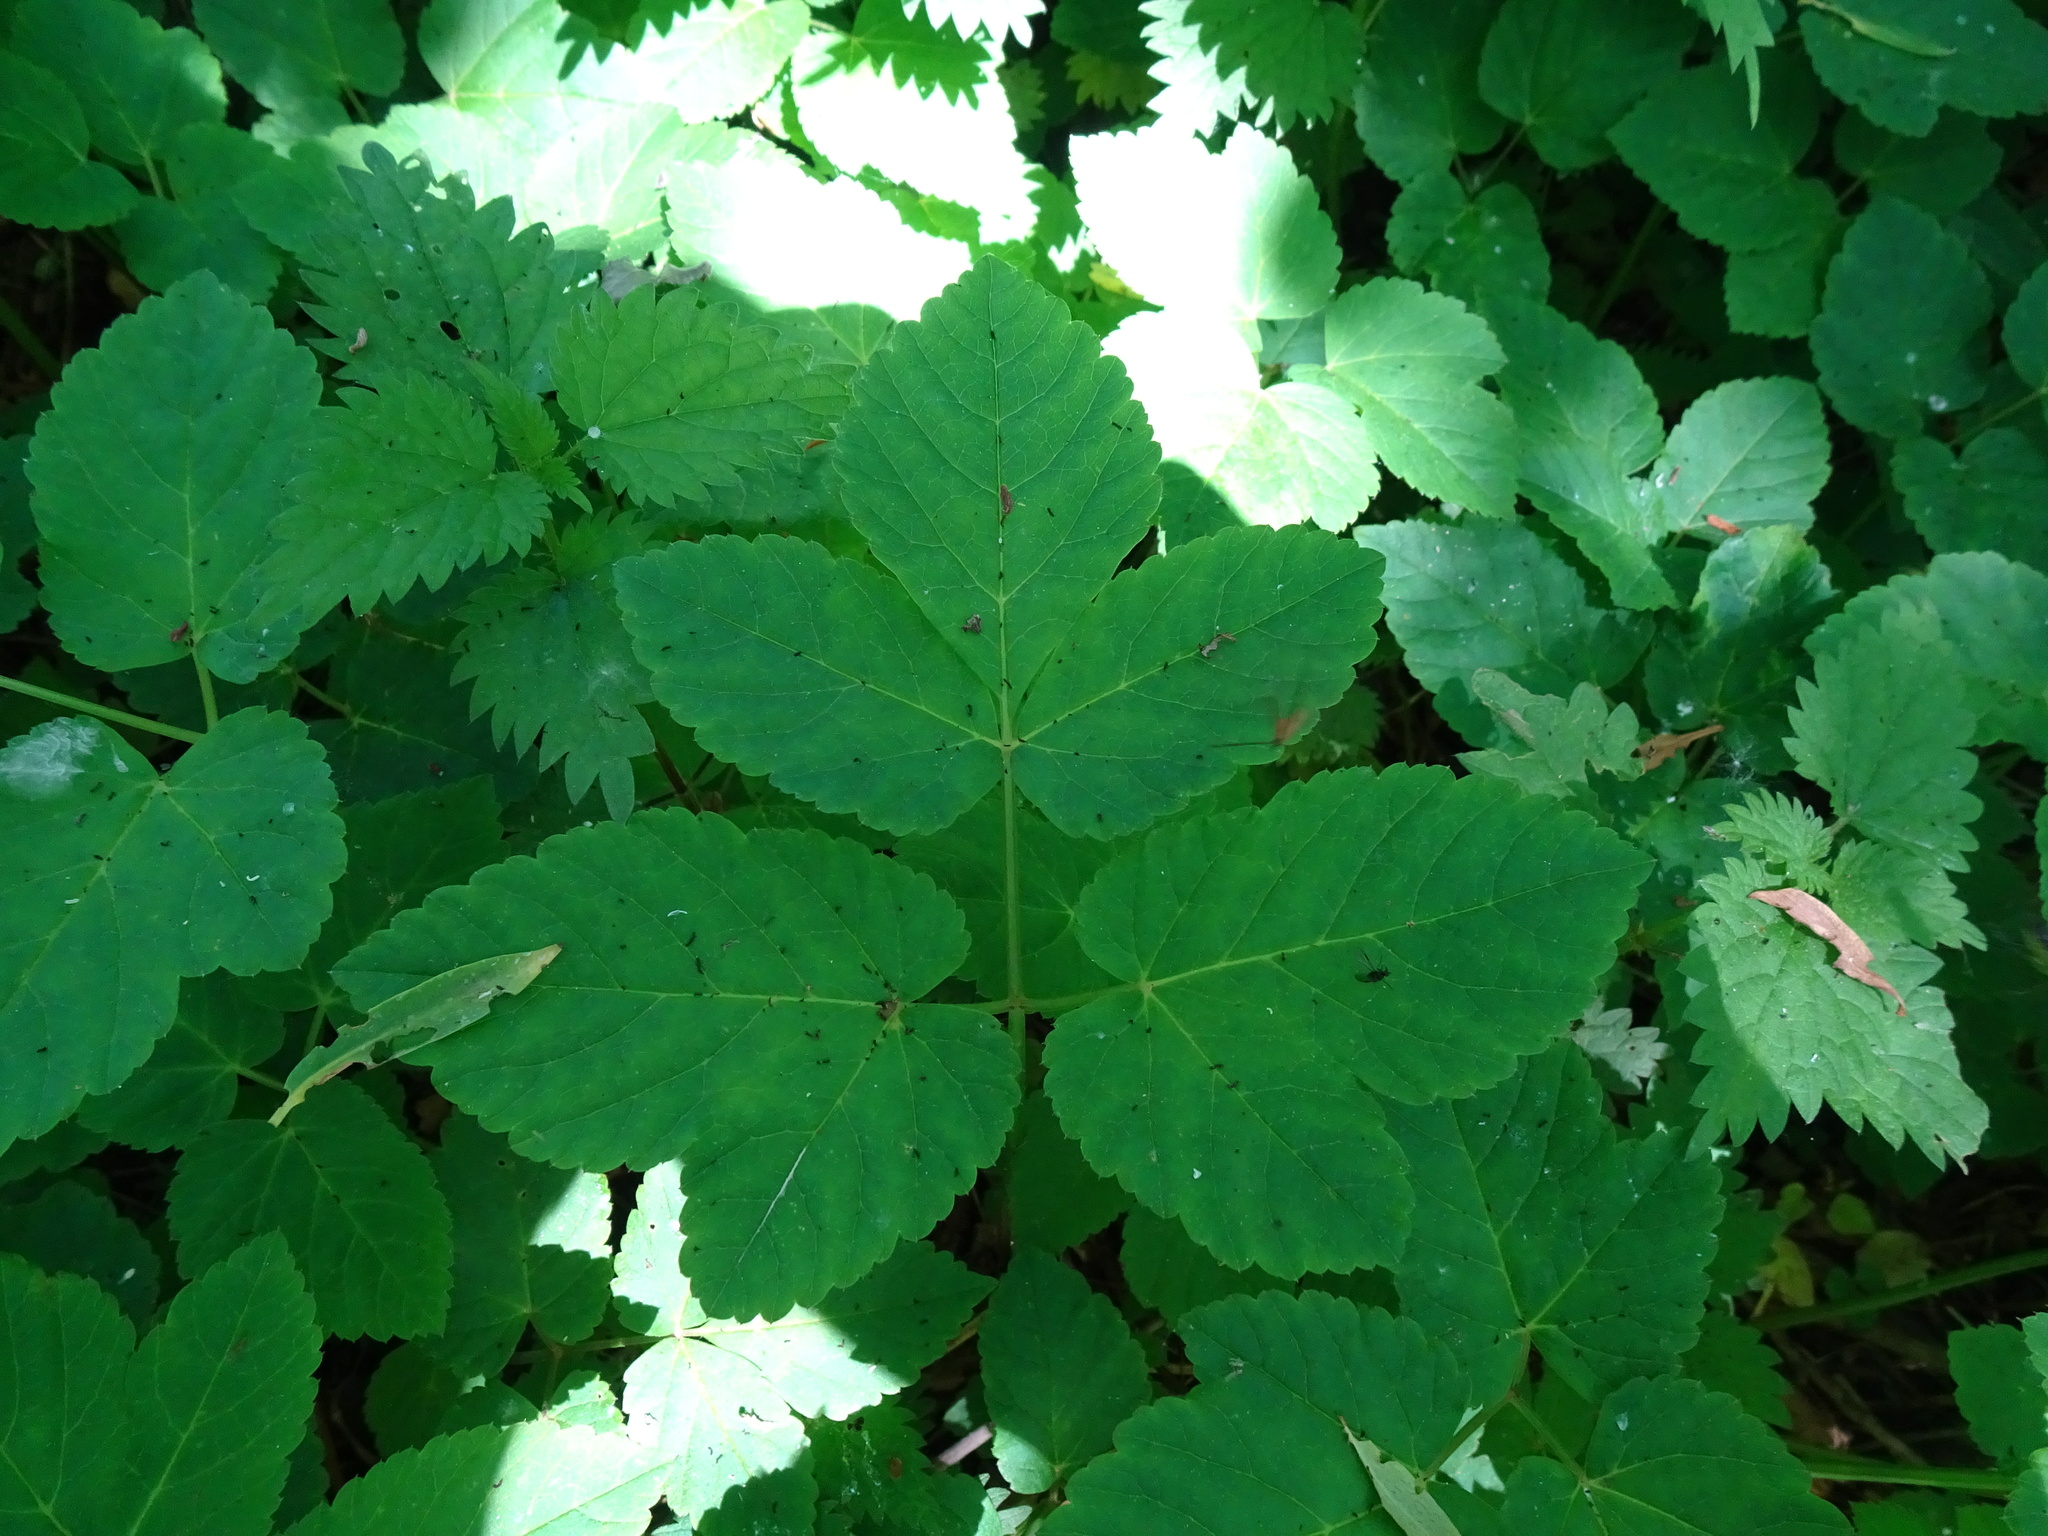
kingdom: Plantae
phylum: Tracheophyta
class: Magnoliopsida
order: Apiales
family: Apiaceae
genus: Aegopodium
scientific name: Aegopodium podagraria
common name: Ground-elder
